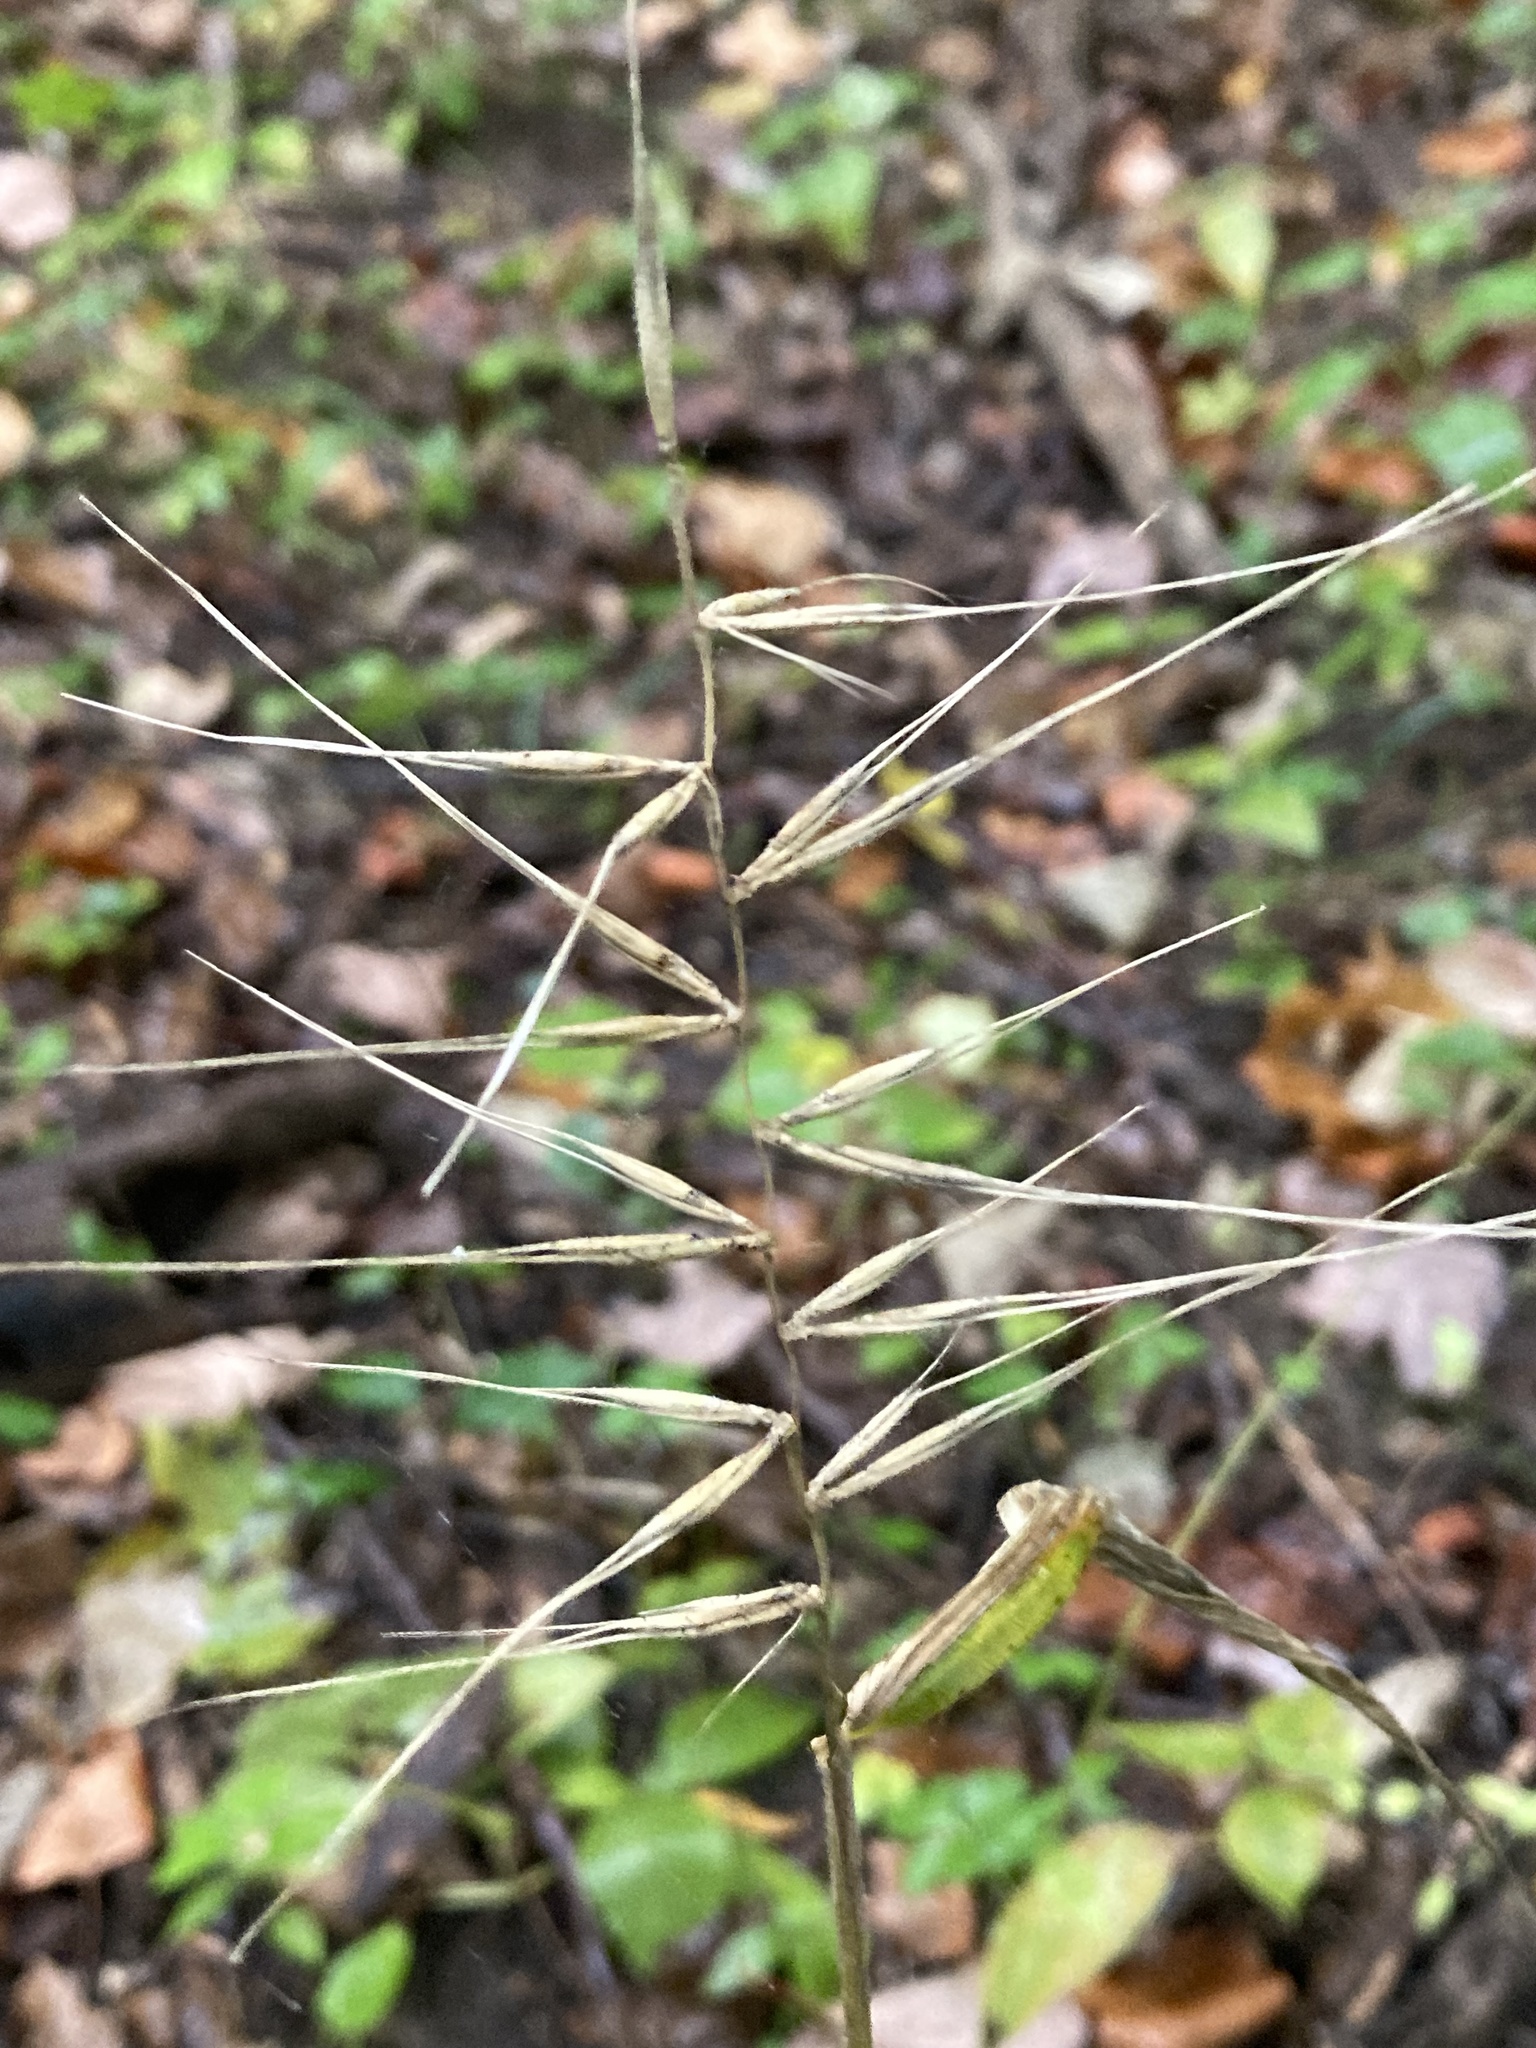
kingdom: Plantae
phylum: Tracheophyta
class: Liliopsida
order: Poales
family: Poaceae
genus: Elymus
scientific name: Elymus hystrix
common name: Bottlebrush grass
